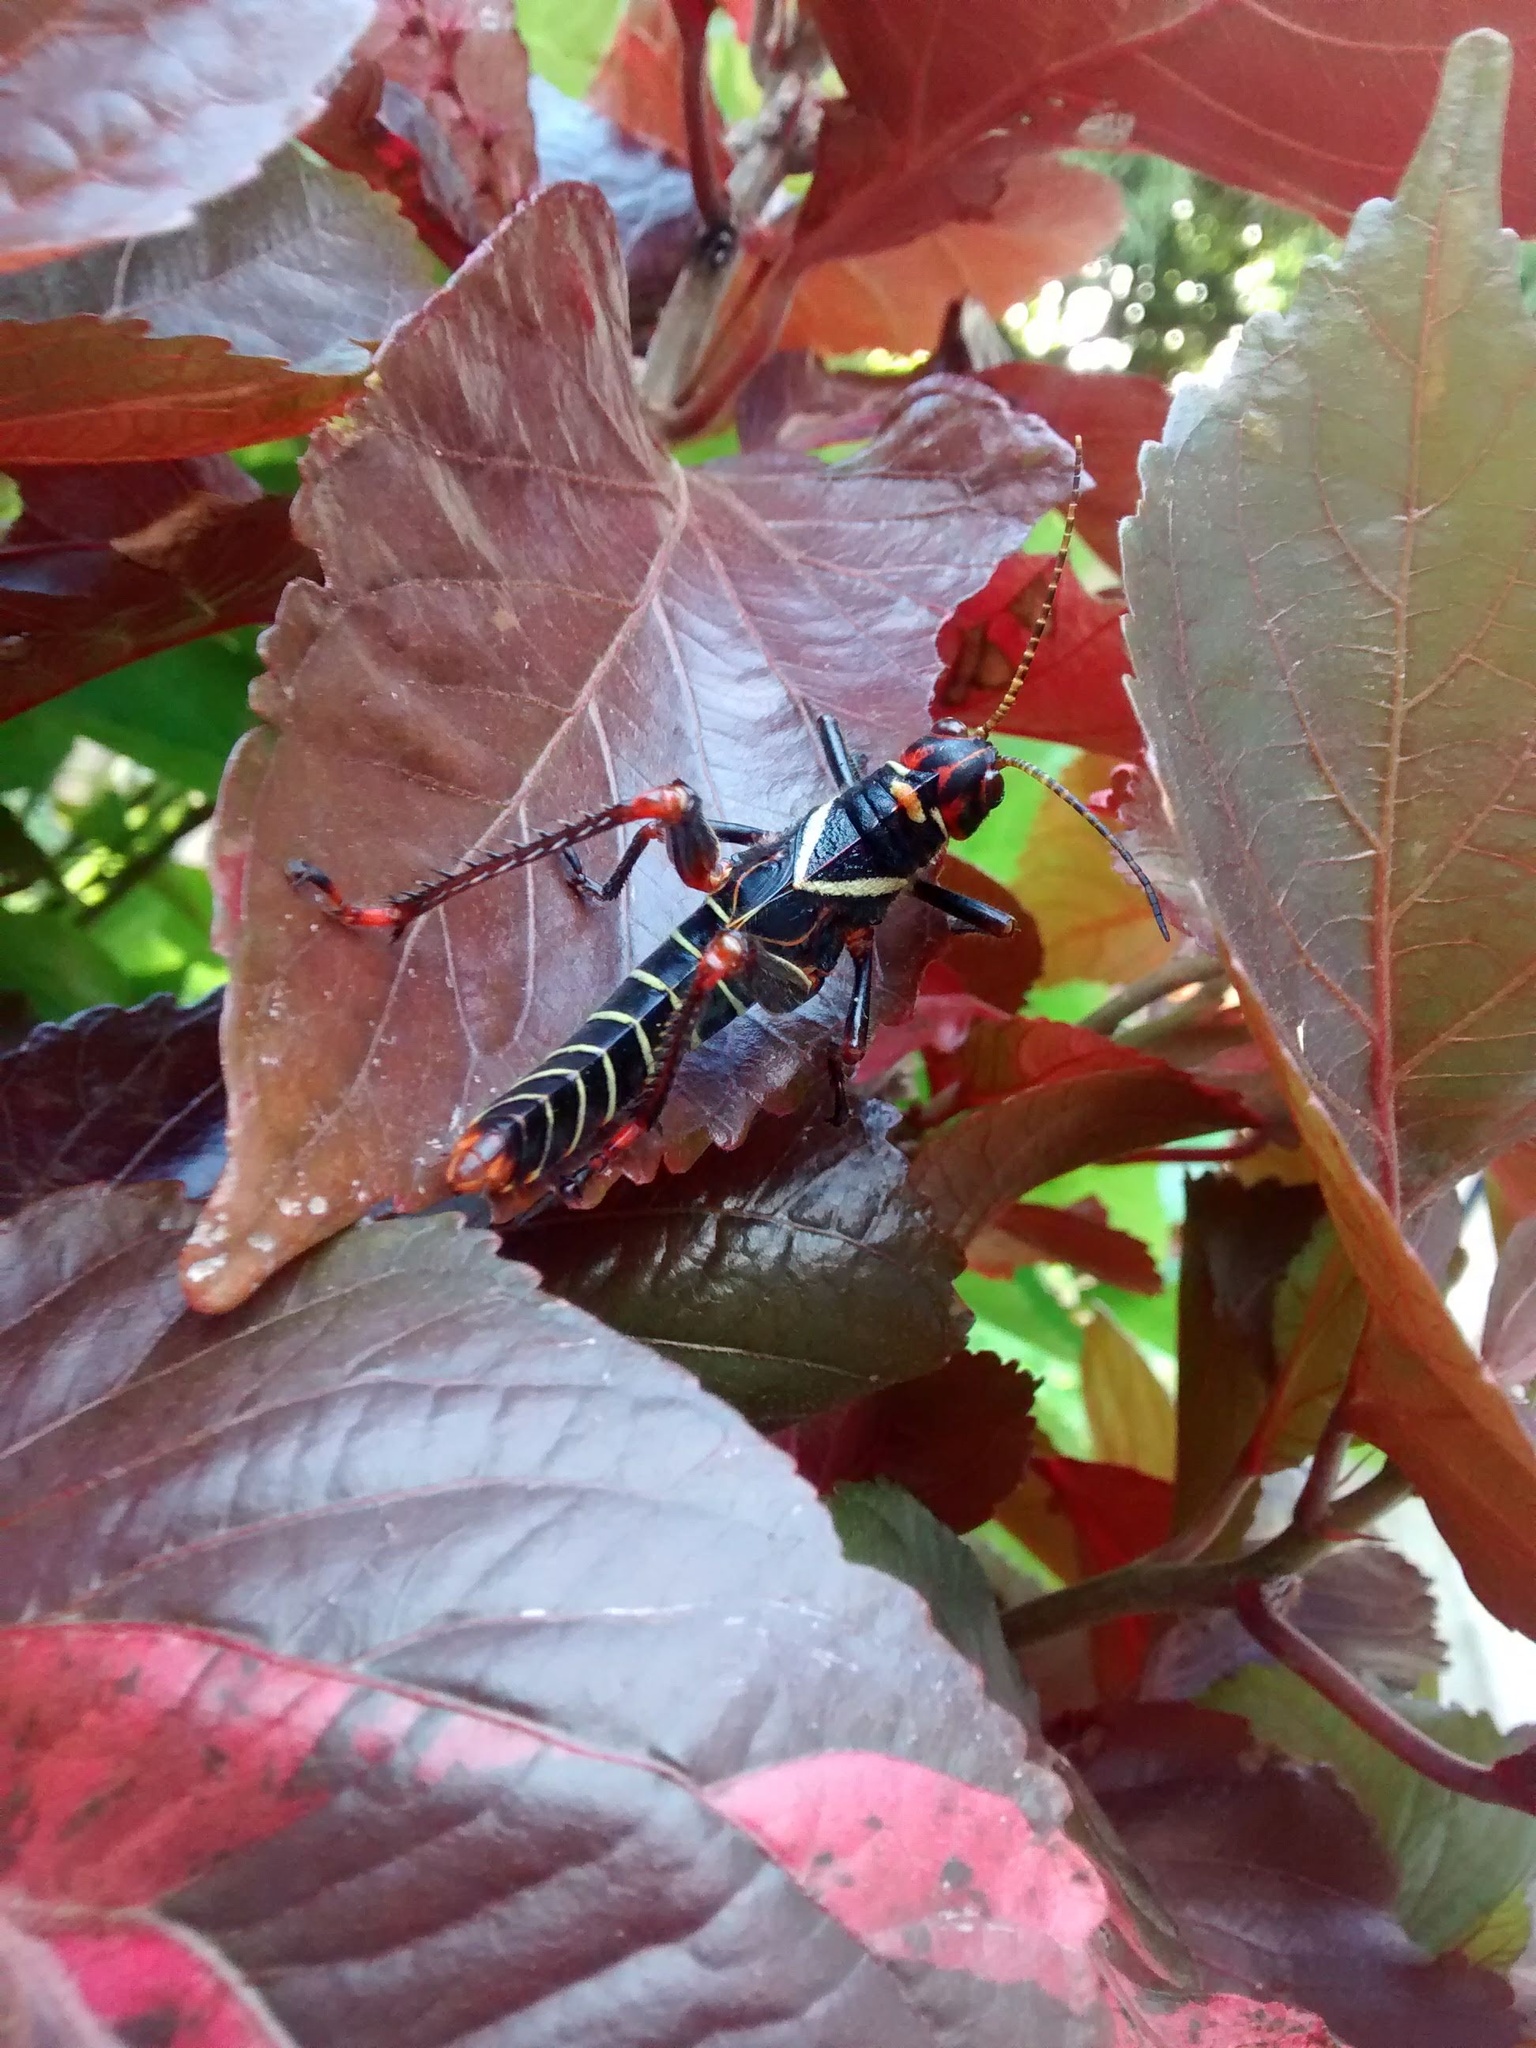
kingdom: Animalia
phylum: Arthropoda
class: Insecta
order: Orthoptera
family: Romaleidae
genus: Tropidacris
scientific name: Tropidacris collaris
